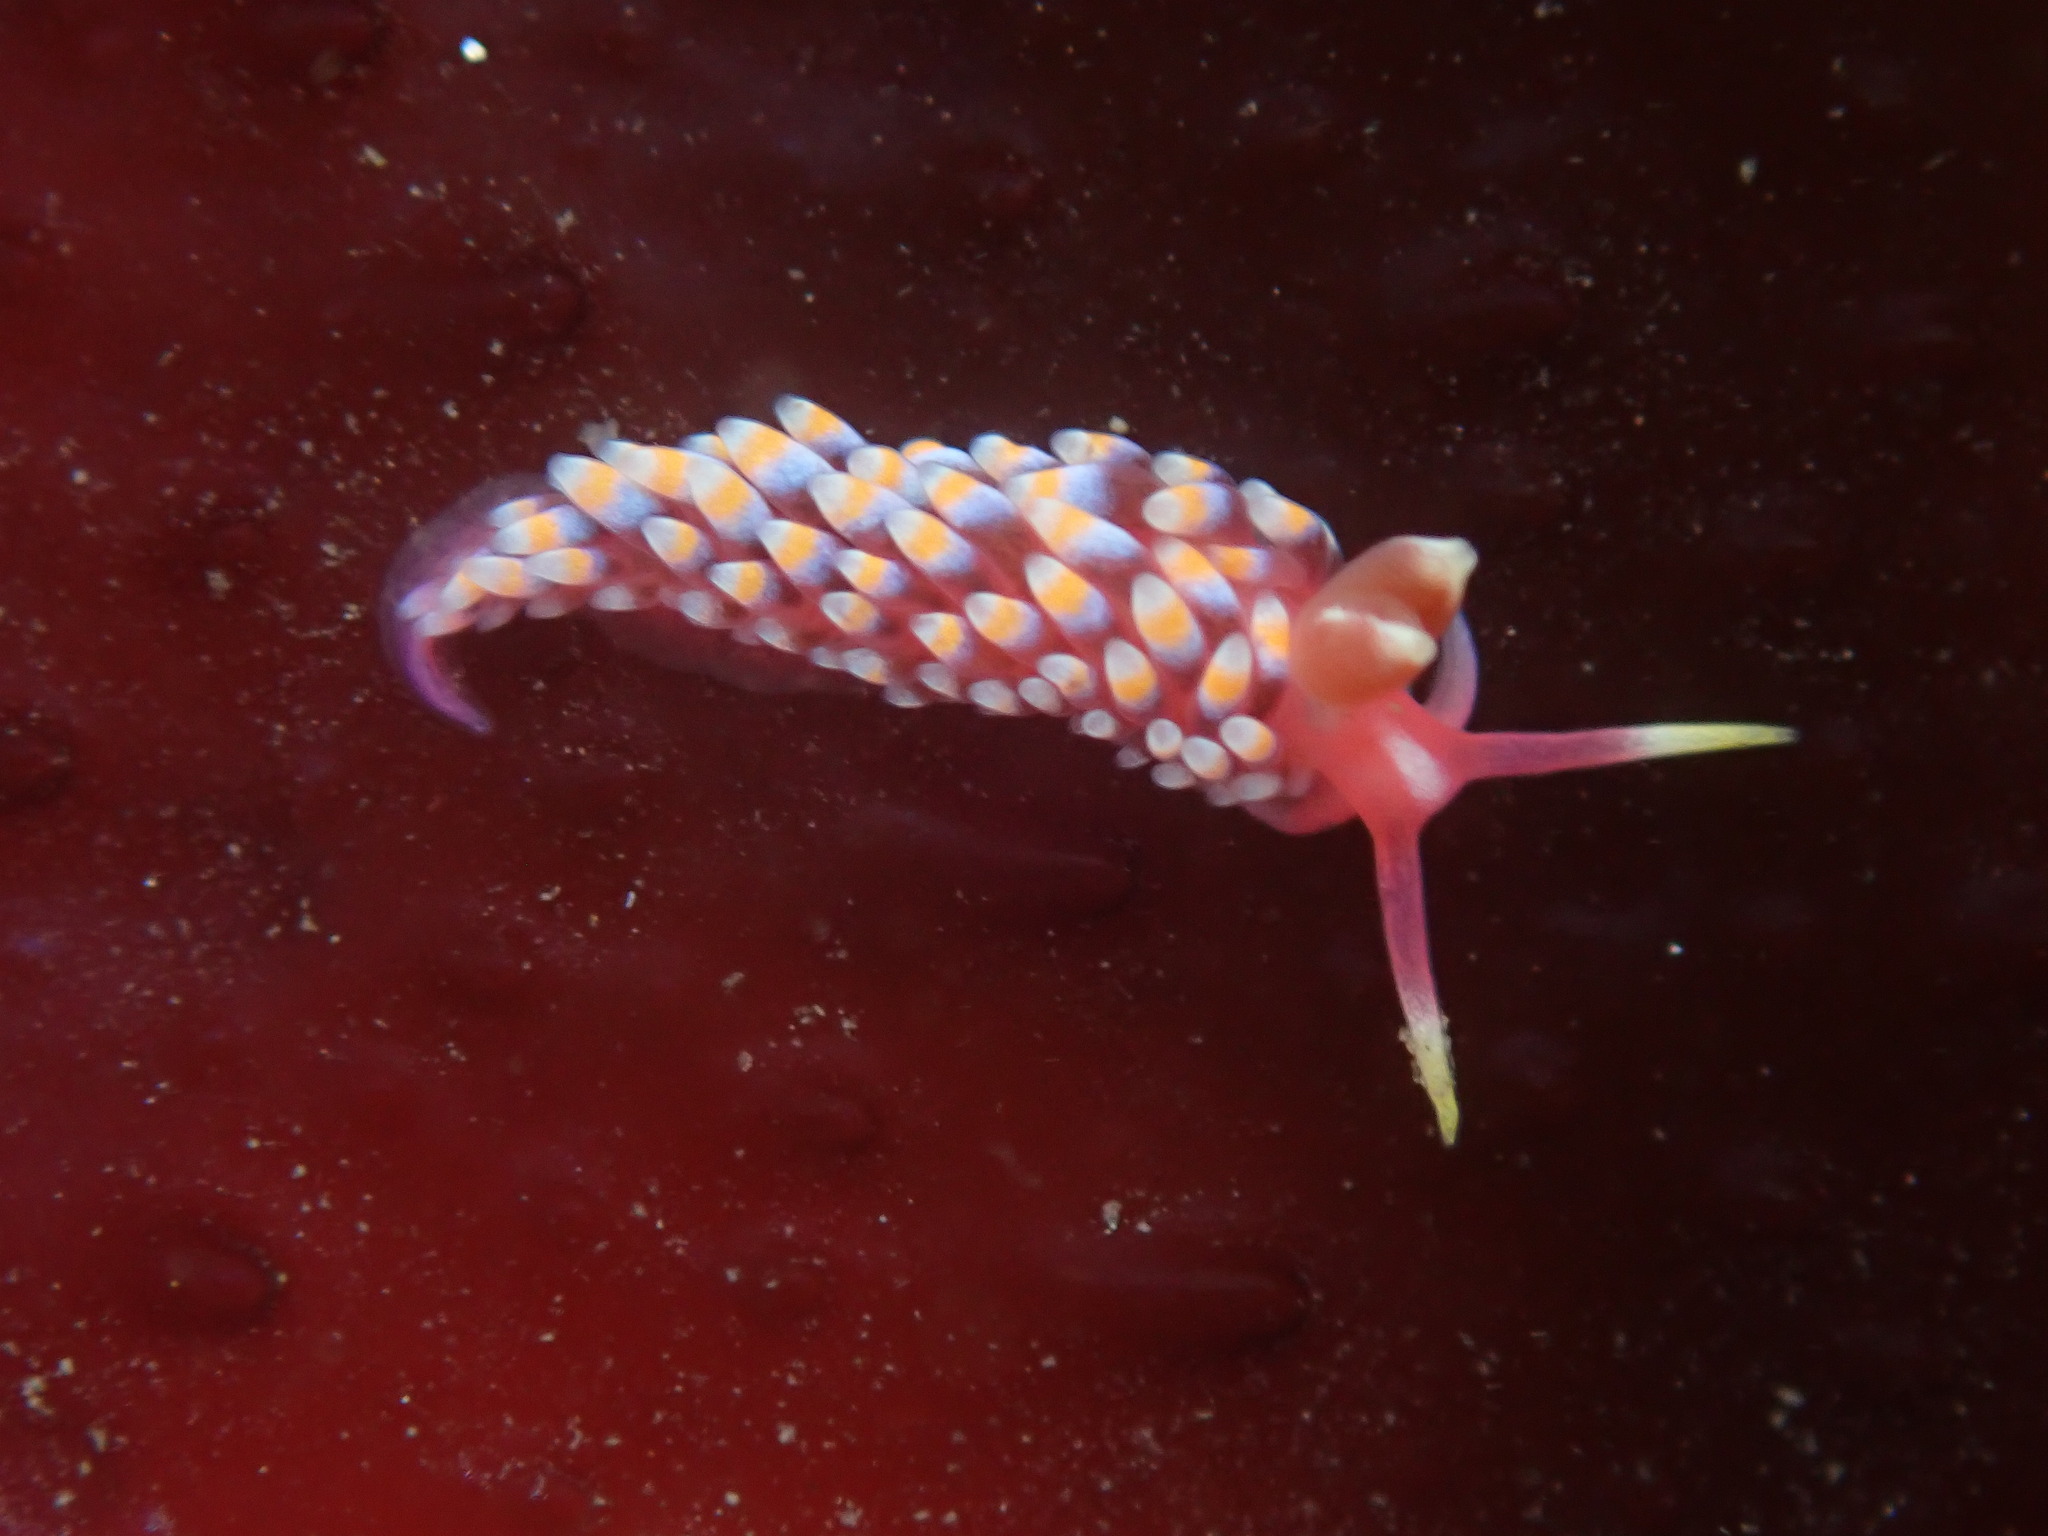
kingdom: Animalia
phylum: Mollusca
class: Gastropoda
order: Nudibranchia
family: Babakinidae
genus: Babakina
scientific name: Babakina festiva
